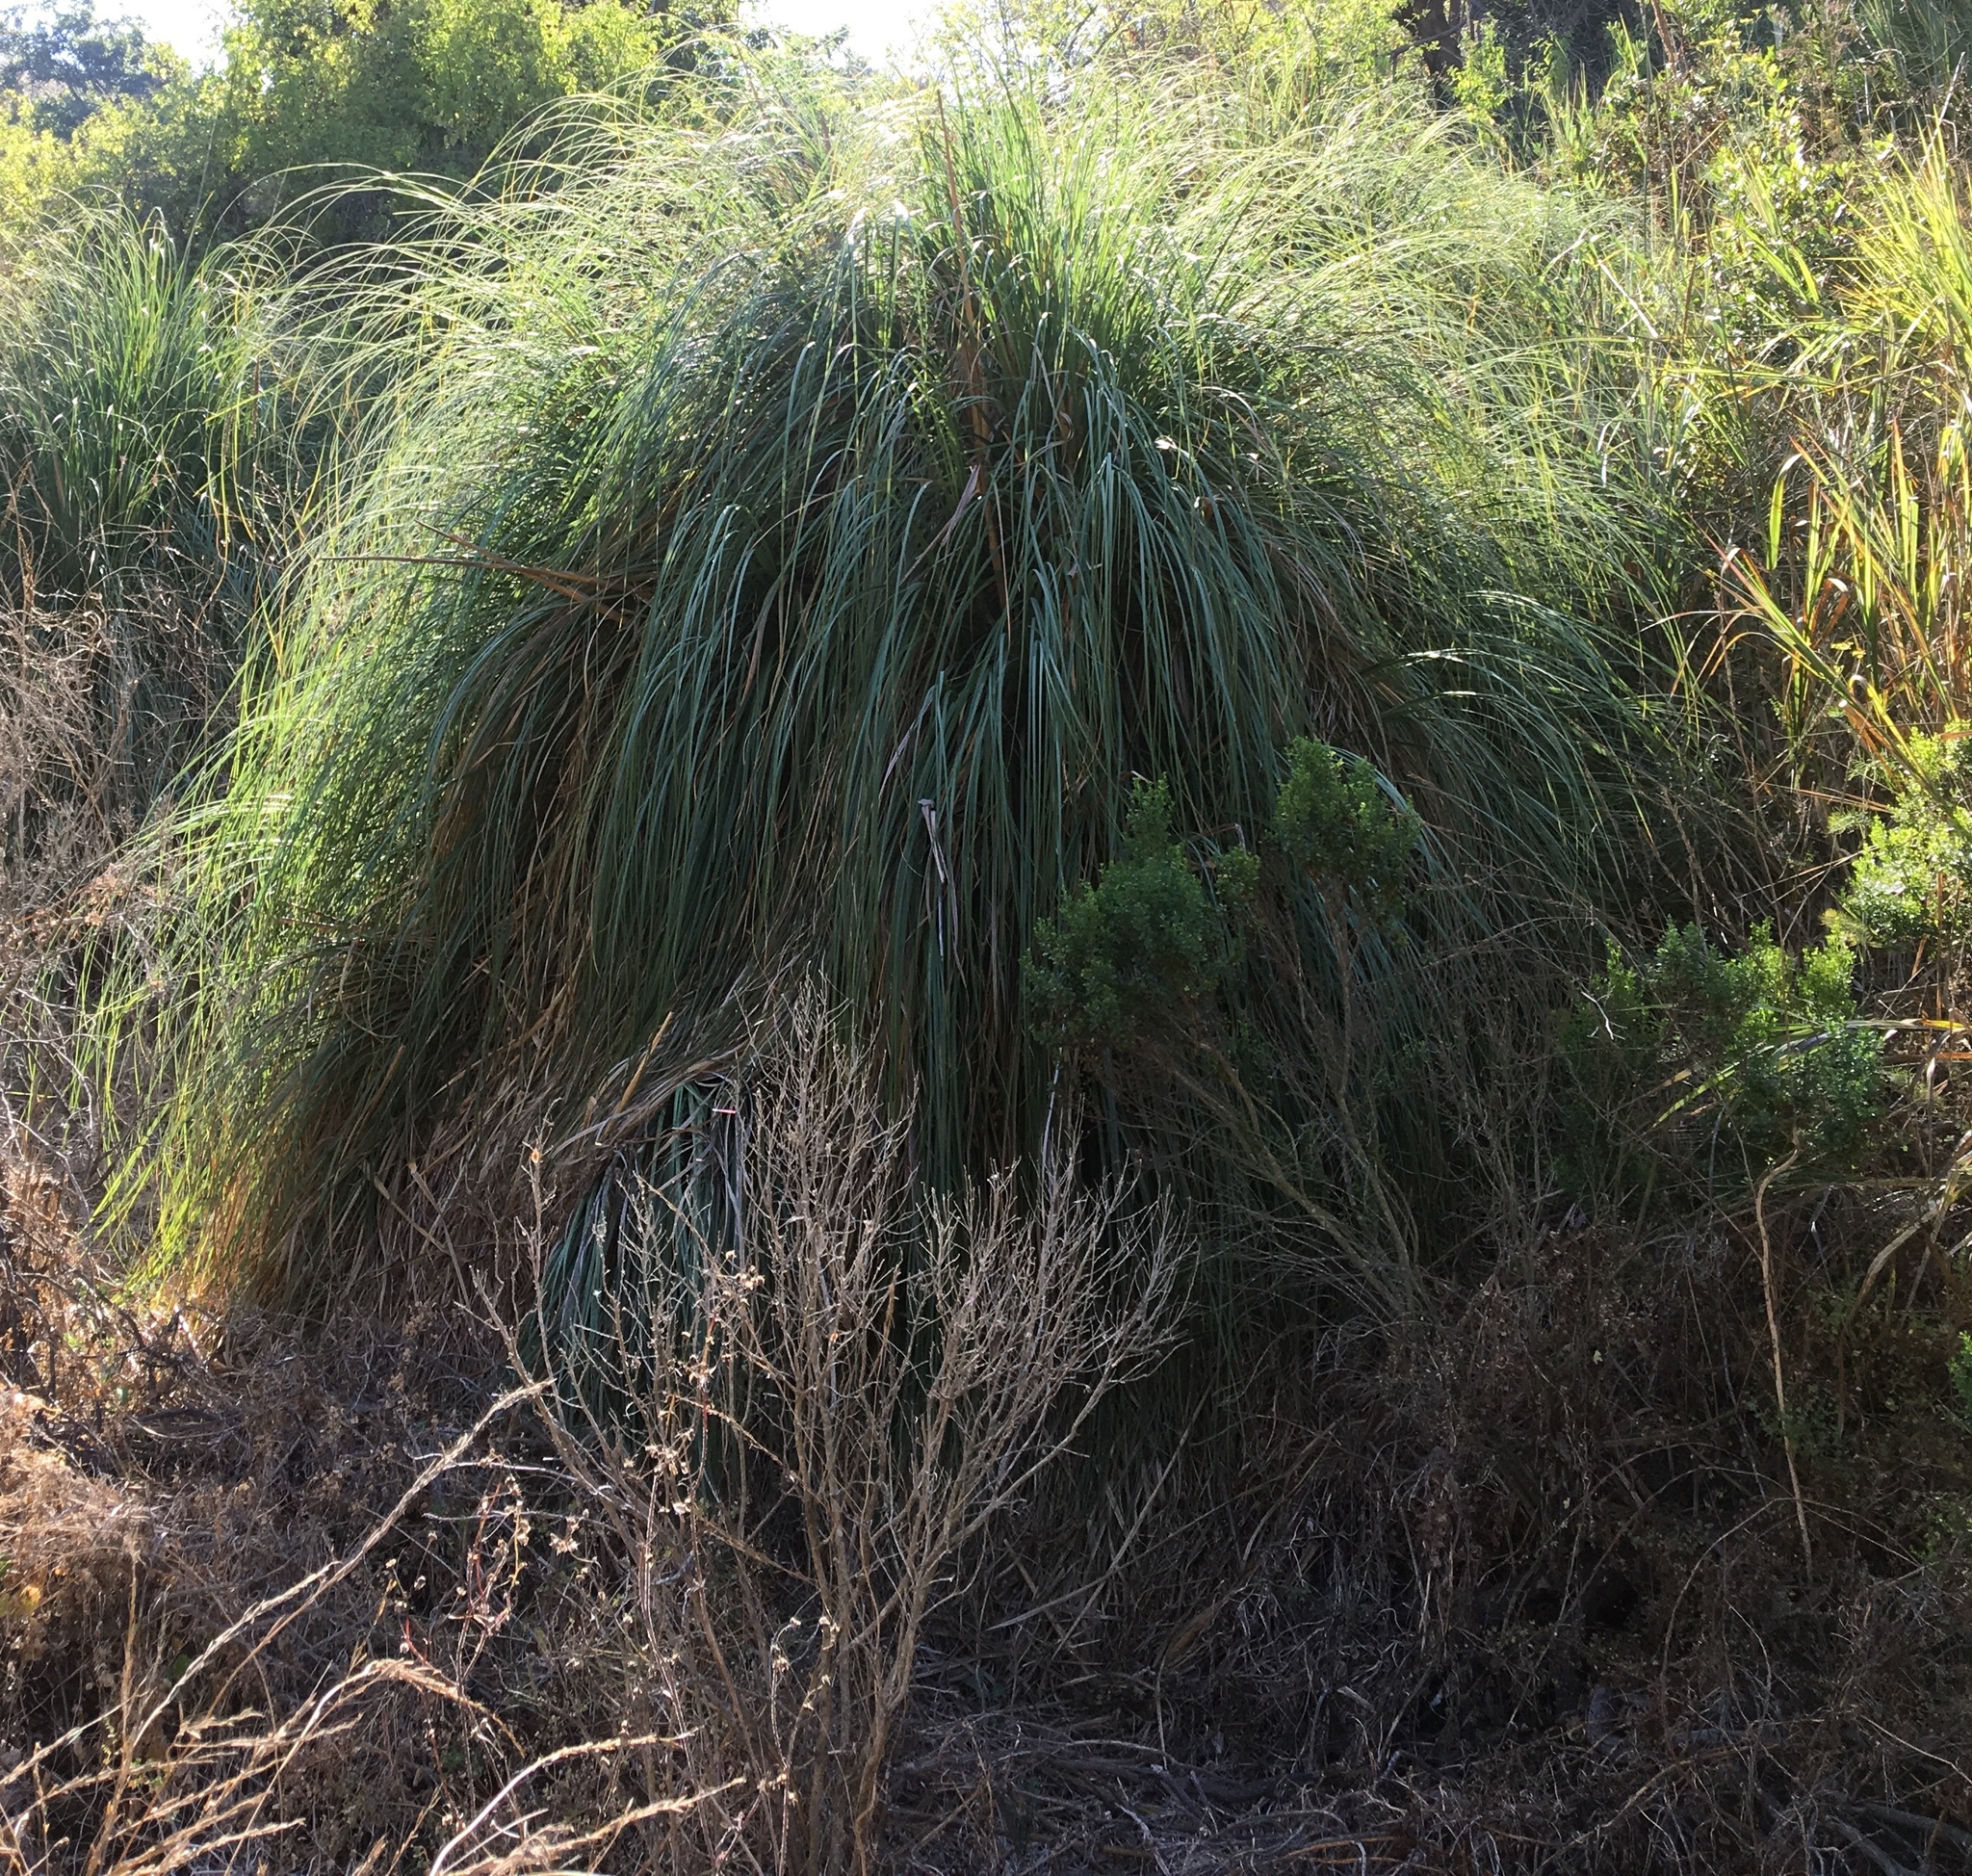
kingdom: Plantae
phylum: Tracheophyta
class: Liliopsida
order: Poales
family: Poaceae
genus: Cortaderia
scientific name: Cortaderia selloana
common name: Uruguayan pampas grass
